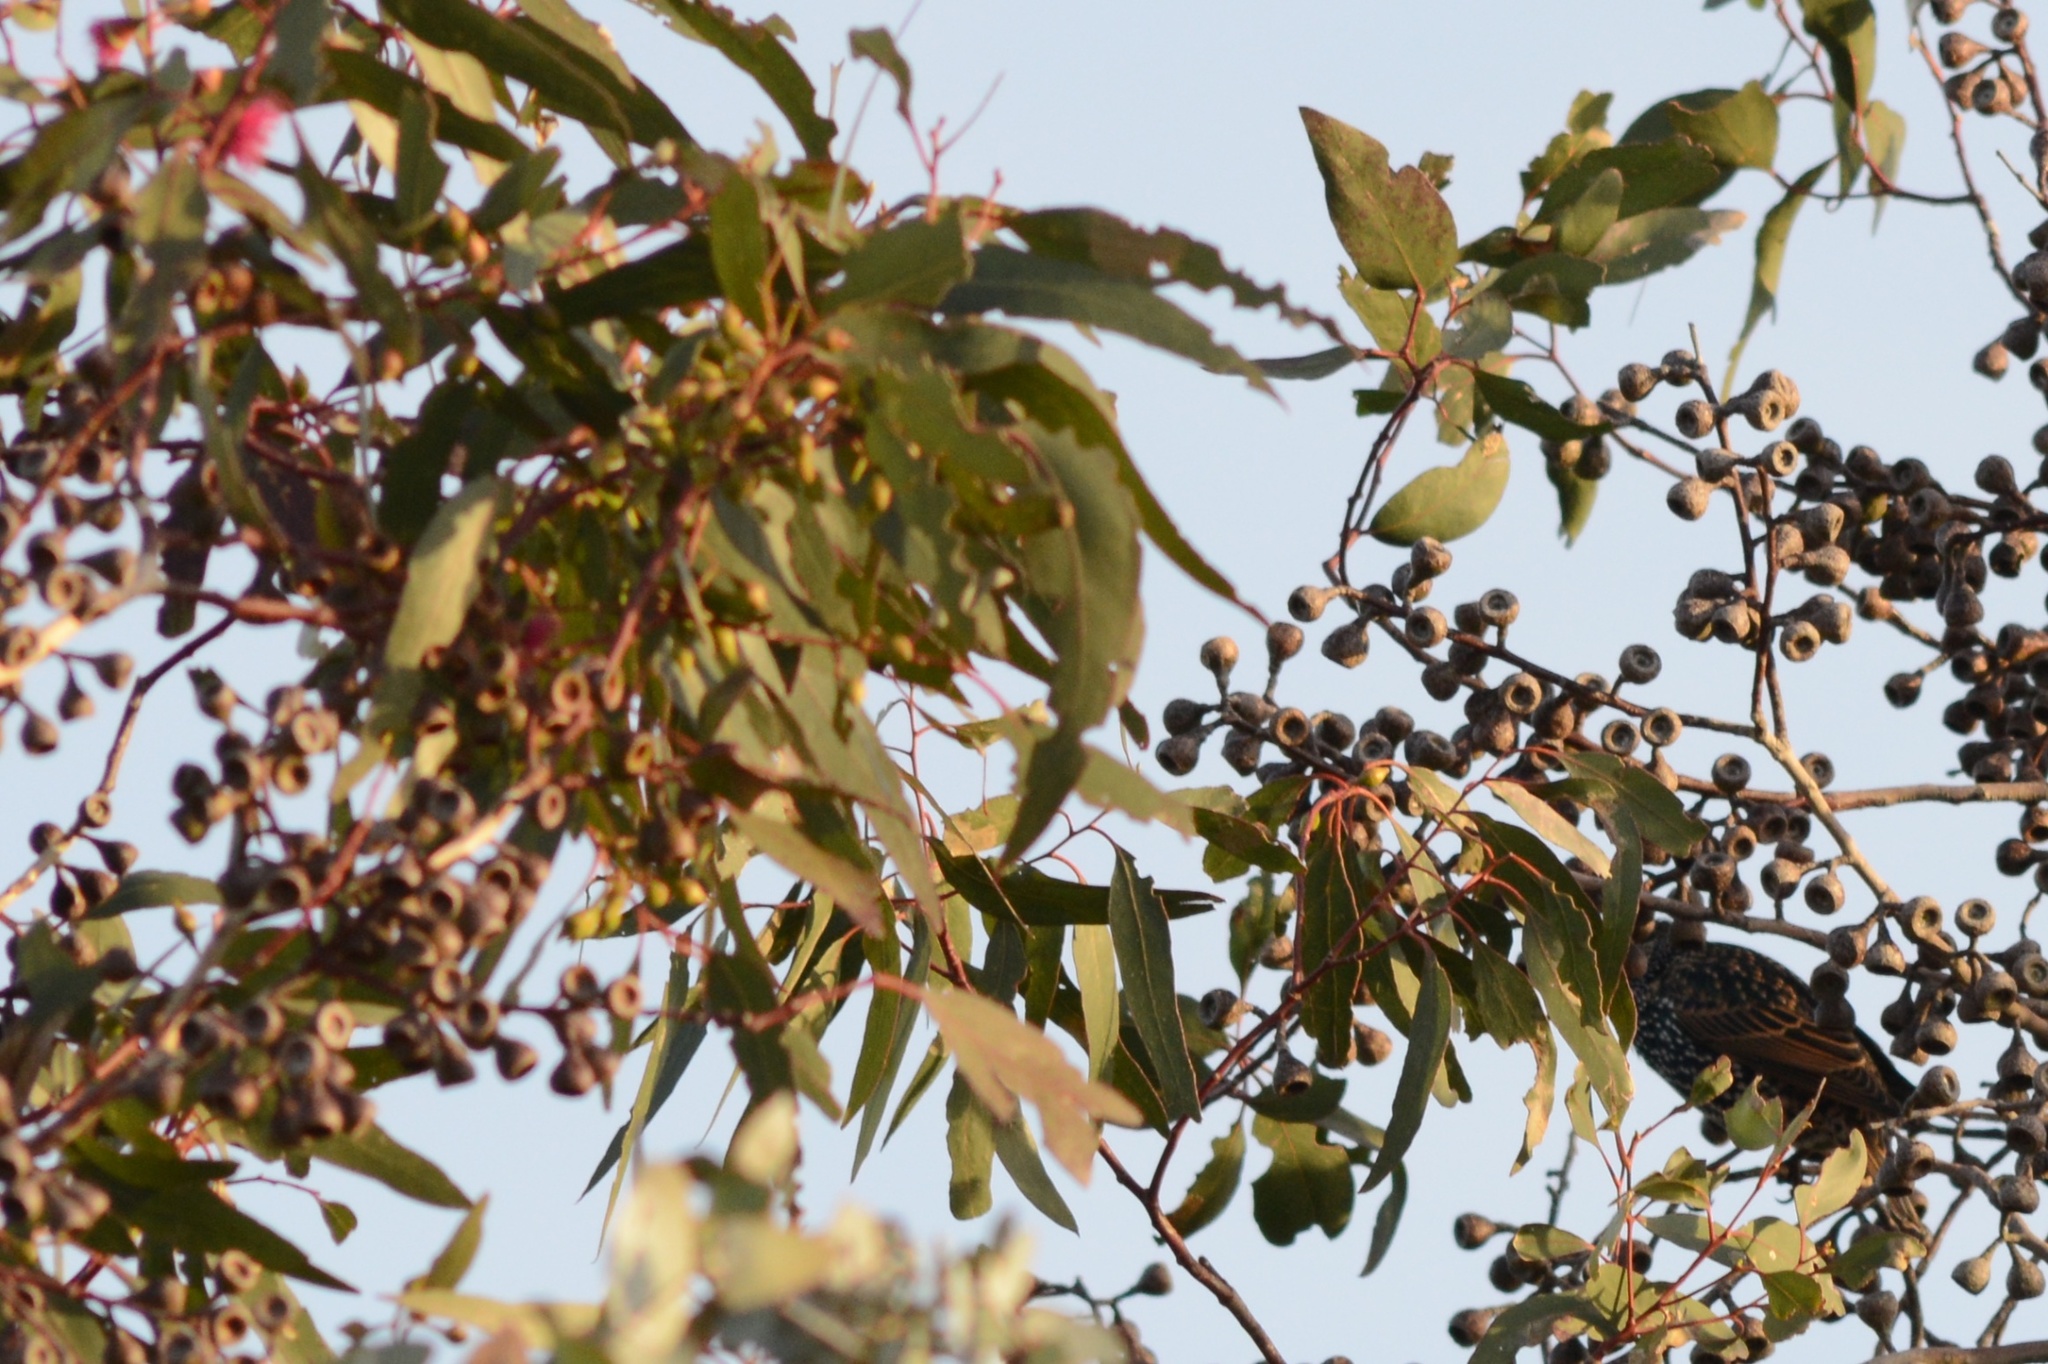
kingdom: Animalia
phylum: Chordata
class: Aves
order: Passeriformes
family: Sturnidae
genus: Sturnus
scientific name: Sturnus vulgaris
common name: Common starling
